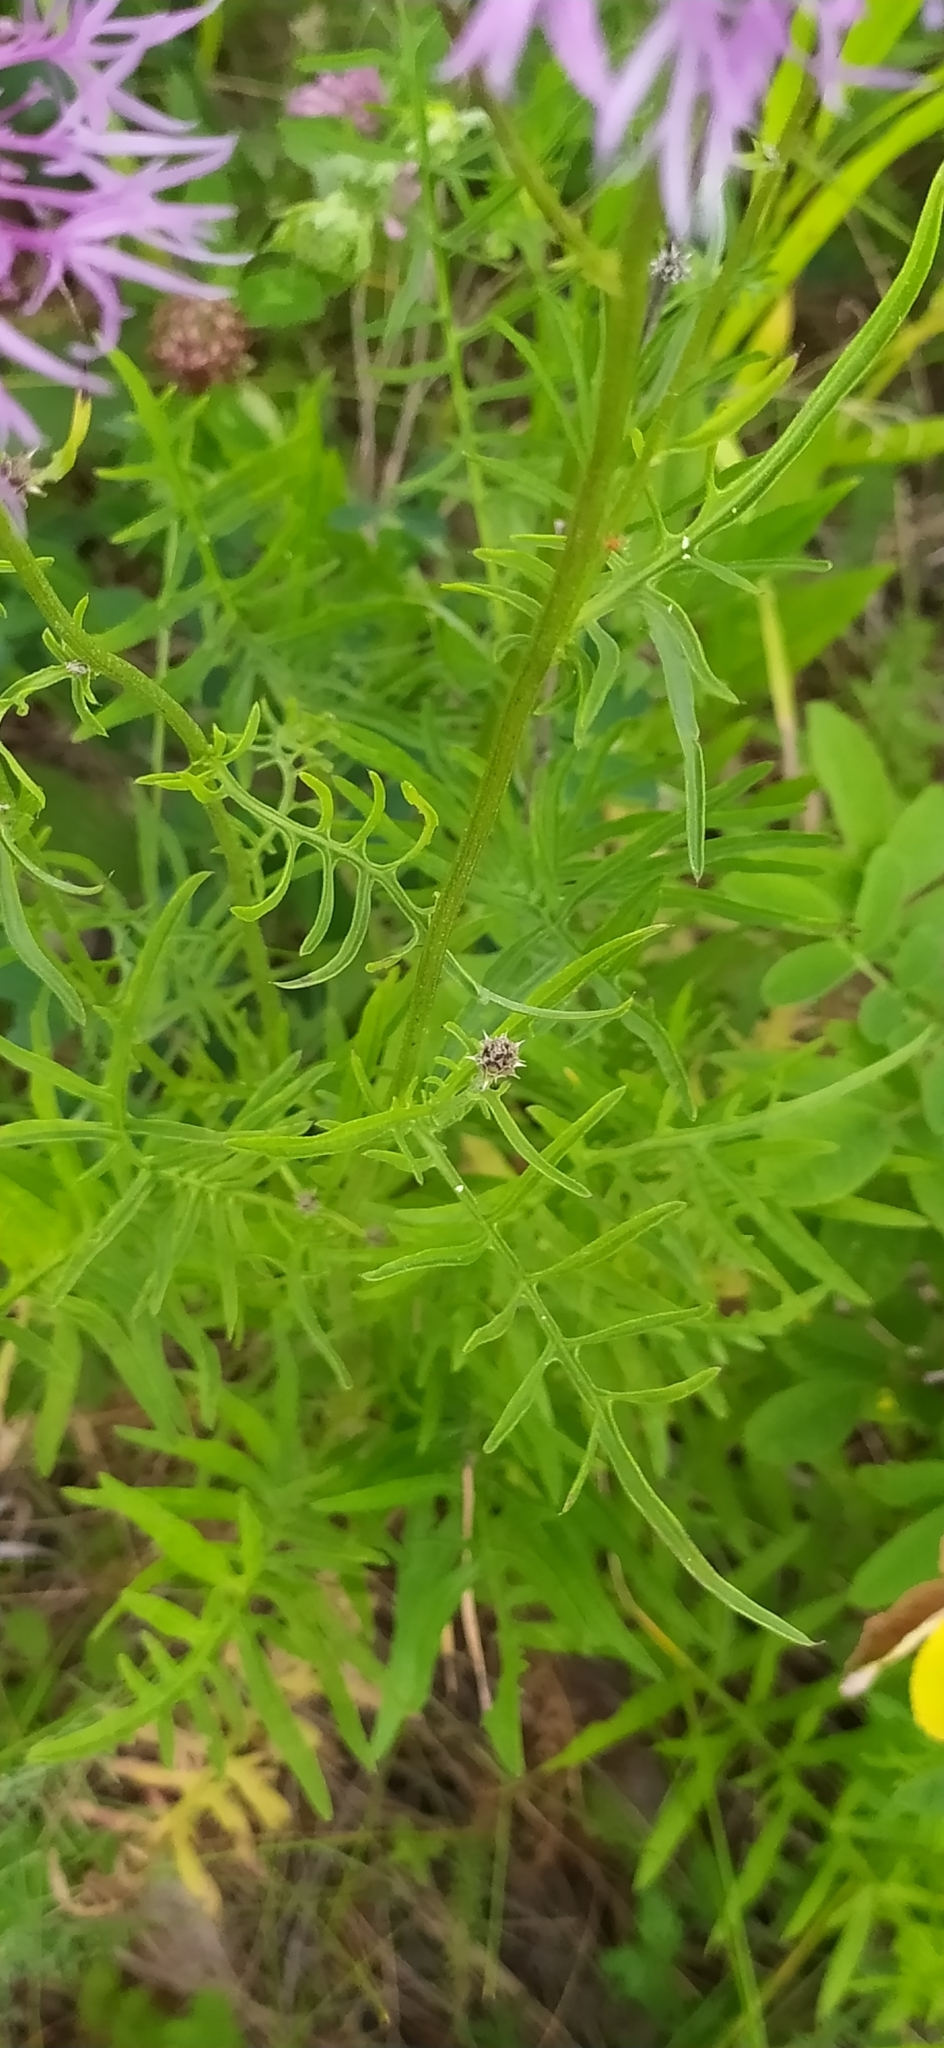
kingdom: Plantae
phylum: Tracheophyta
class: Magnoliopsida
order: Asterales
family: Asteraceae
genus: Centaurea
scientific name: Centaurea scabiosa
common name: Greater knapweed
